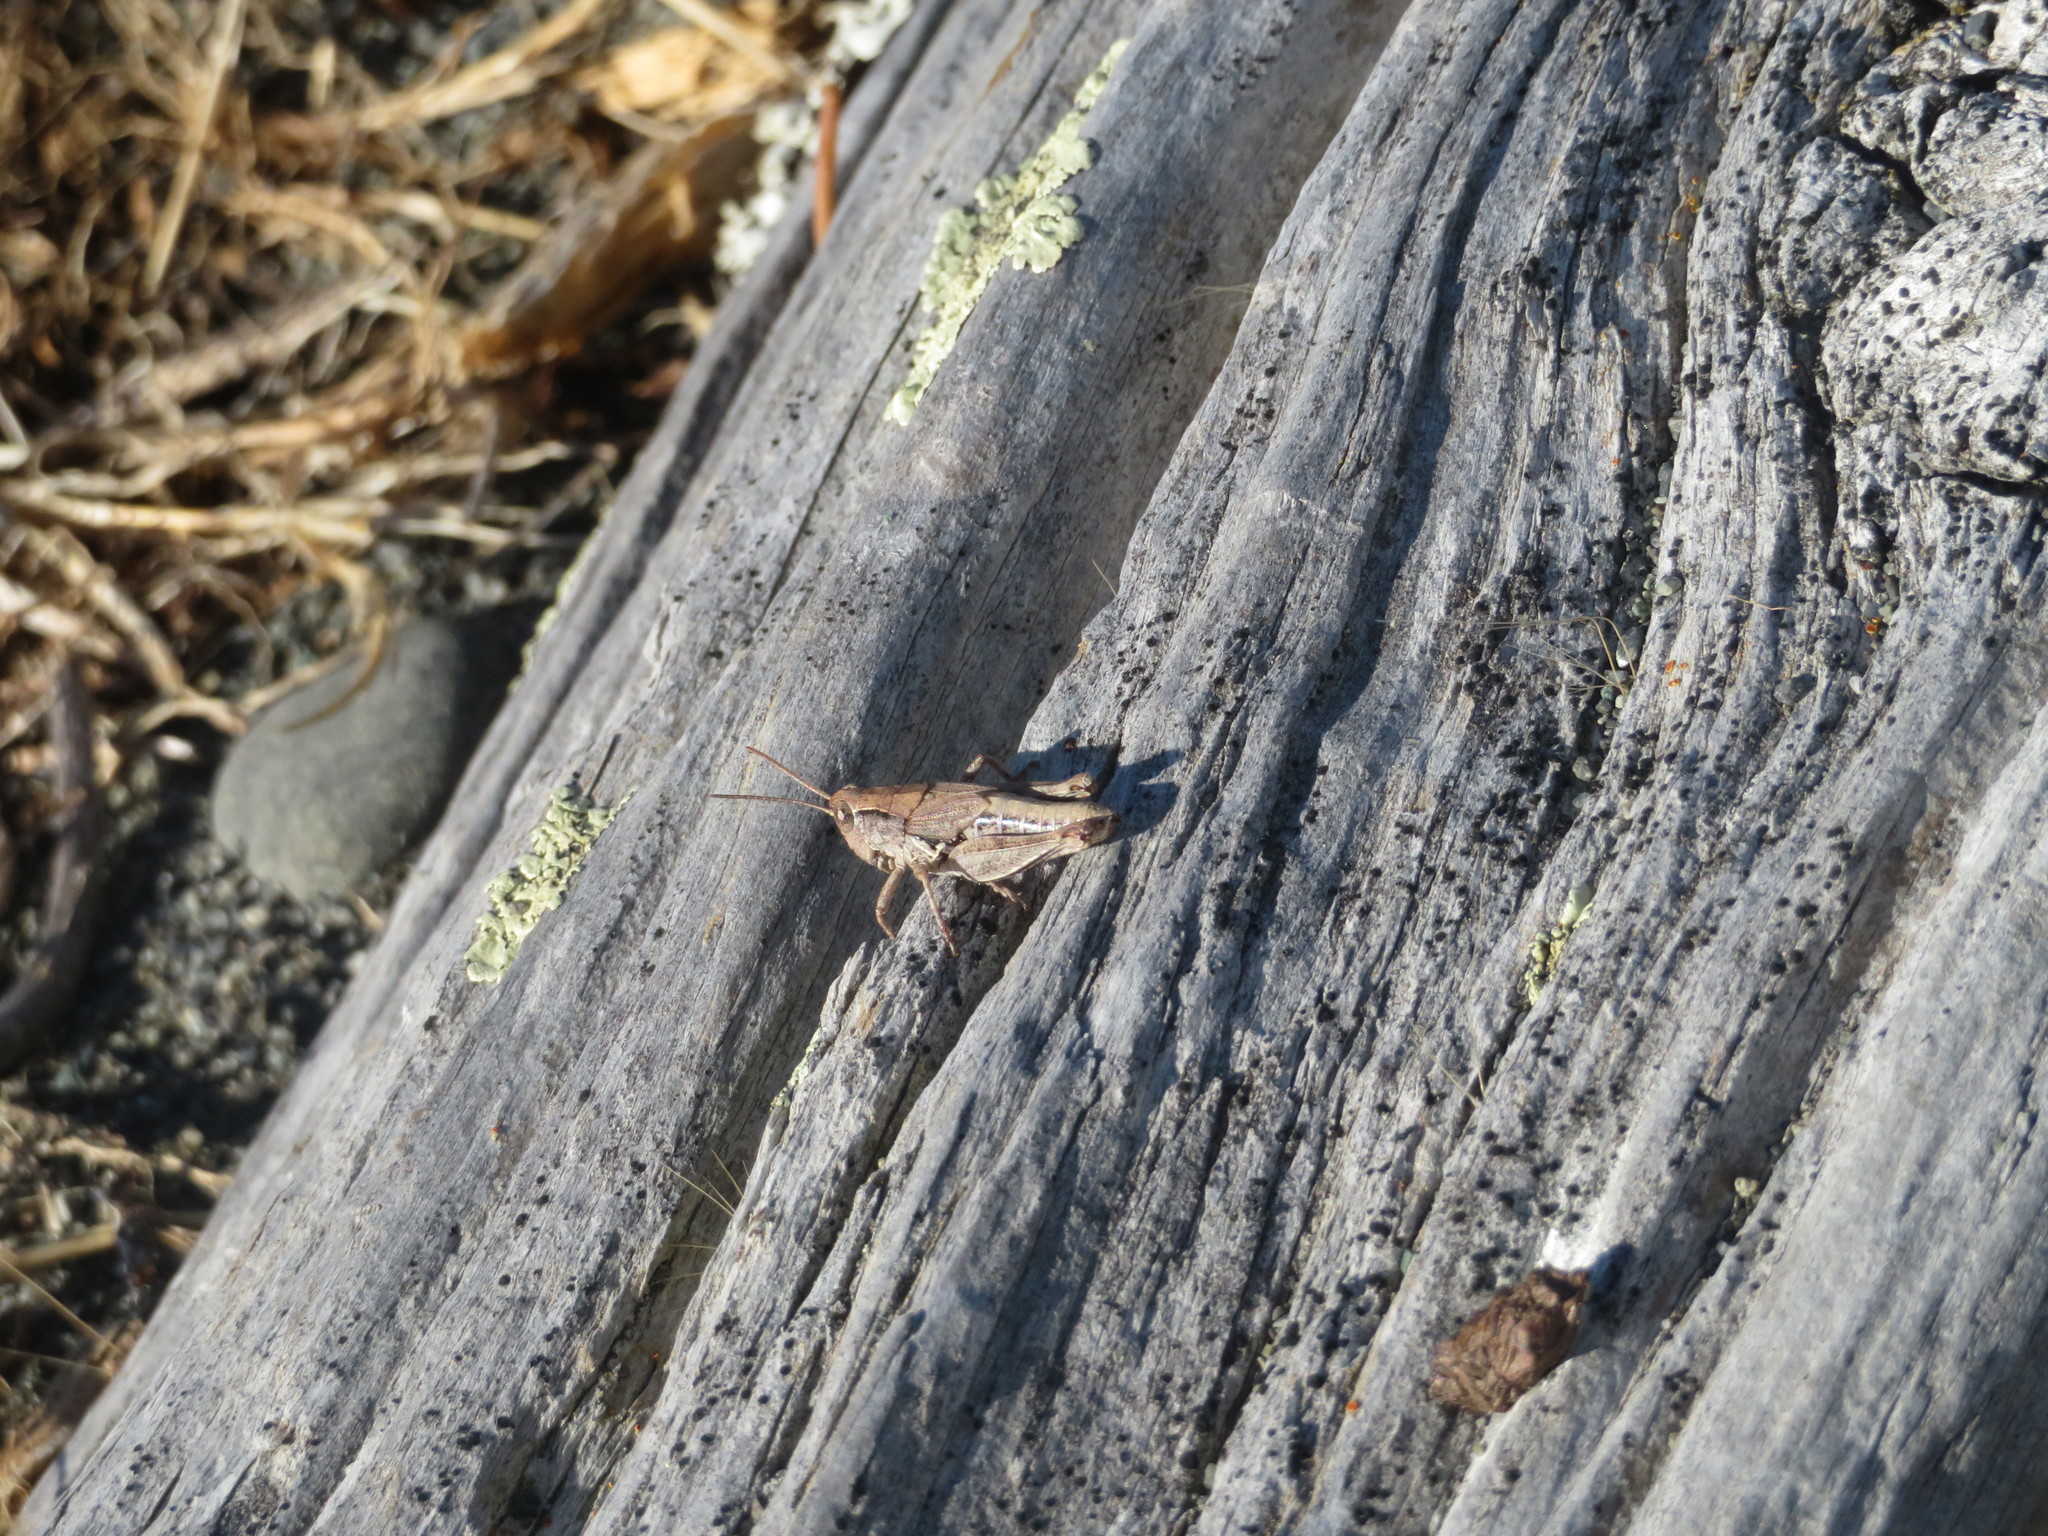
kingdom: Animalia
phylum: Arthropoda
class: Insecta
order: Orthoptera
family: Acrididae
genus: Phaulacridium
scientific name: Phaulacridium marginale
